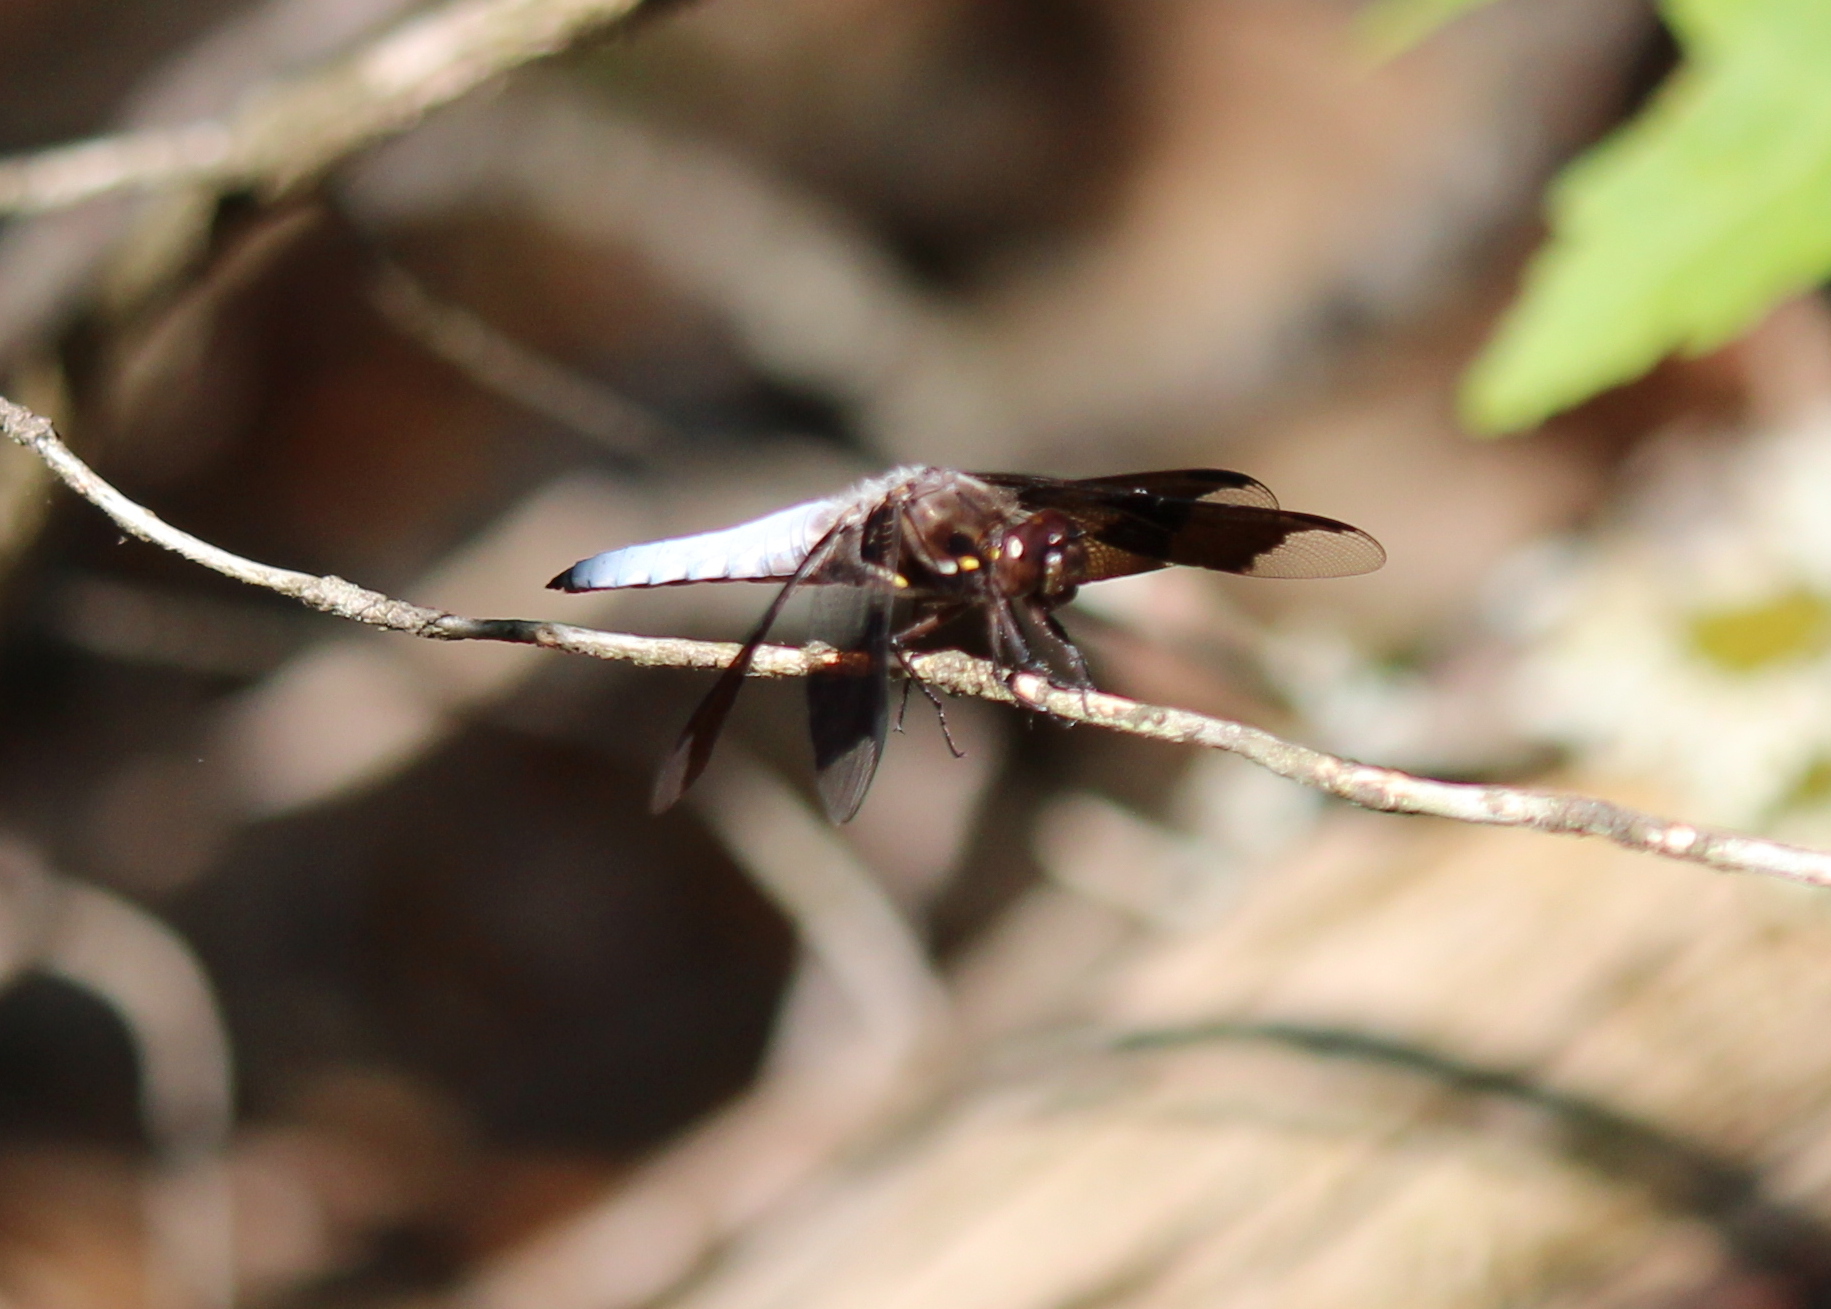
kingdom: Animalia
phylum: Arthropoda
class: Insecta
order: Odonata
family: Libellulidae
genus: Plathemis
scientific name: Plathemis lydia
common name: Common whitetail
